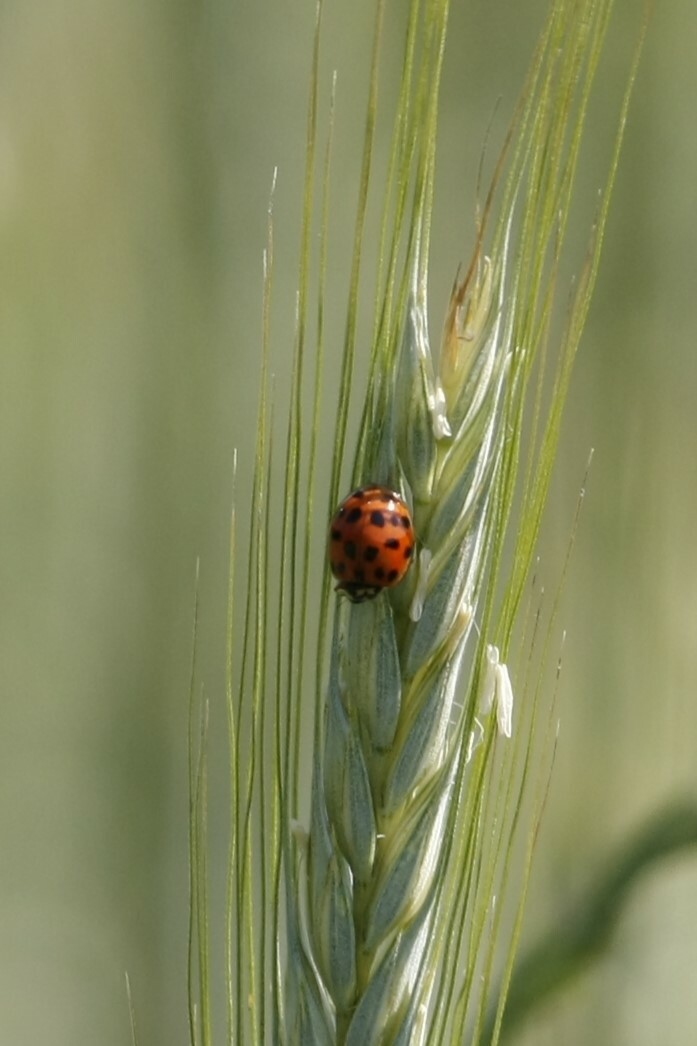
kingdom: Animalia
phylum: Arthropoda
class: Insecta
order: Coleoptera
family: Coccinellidae
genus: Harmonia
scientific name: Harmonia axyridis
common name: Harlequin ladybird
